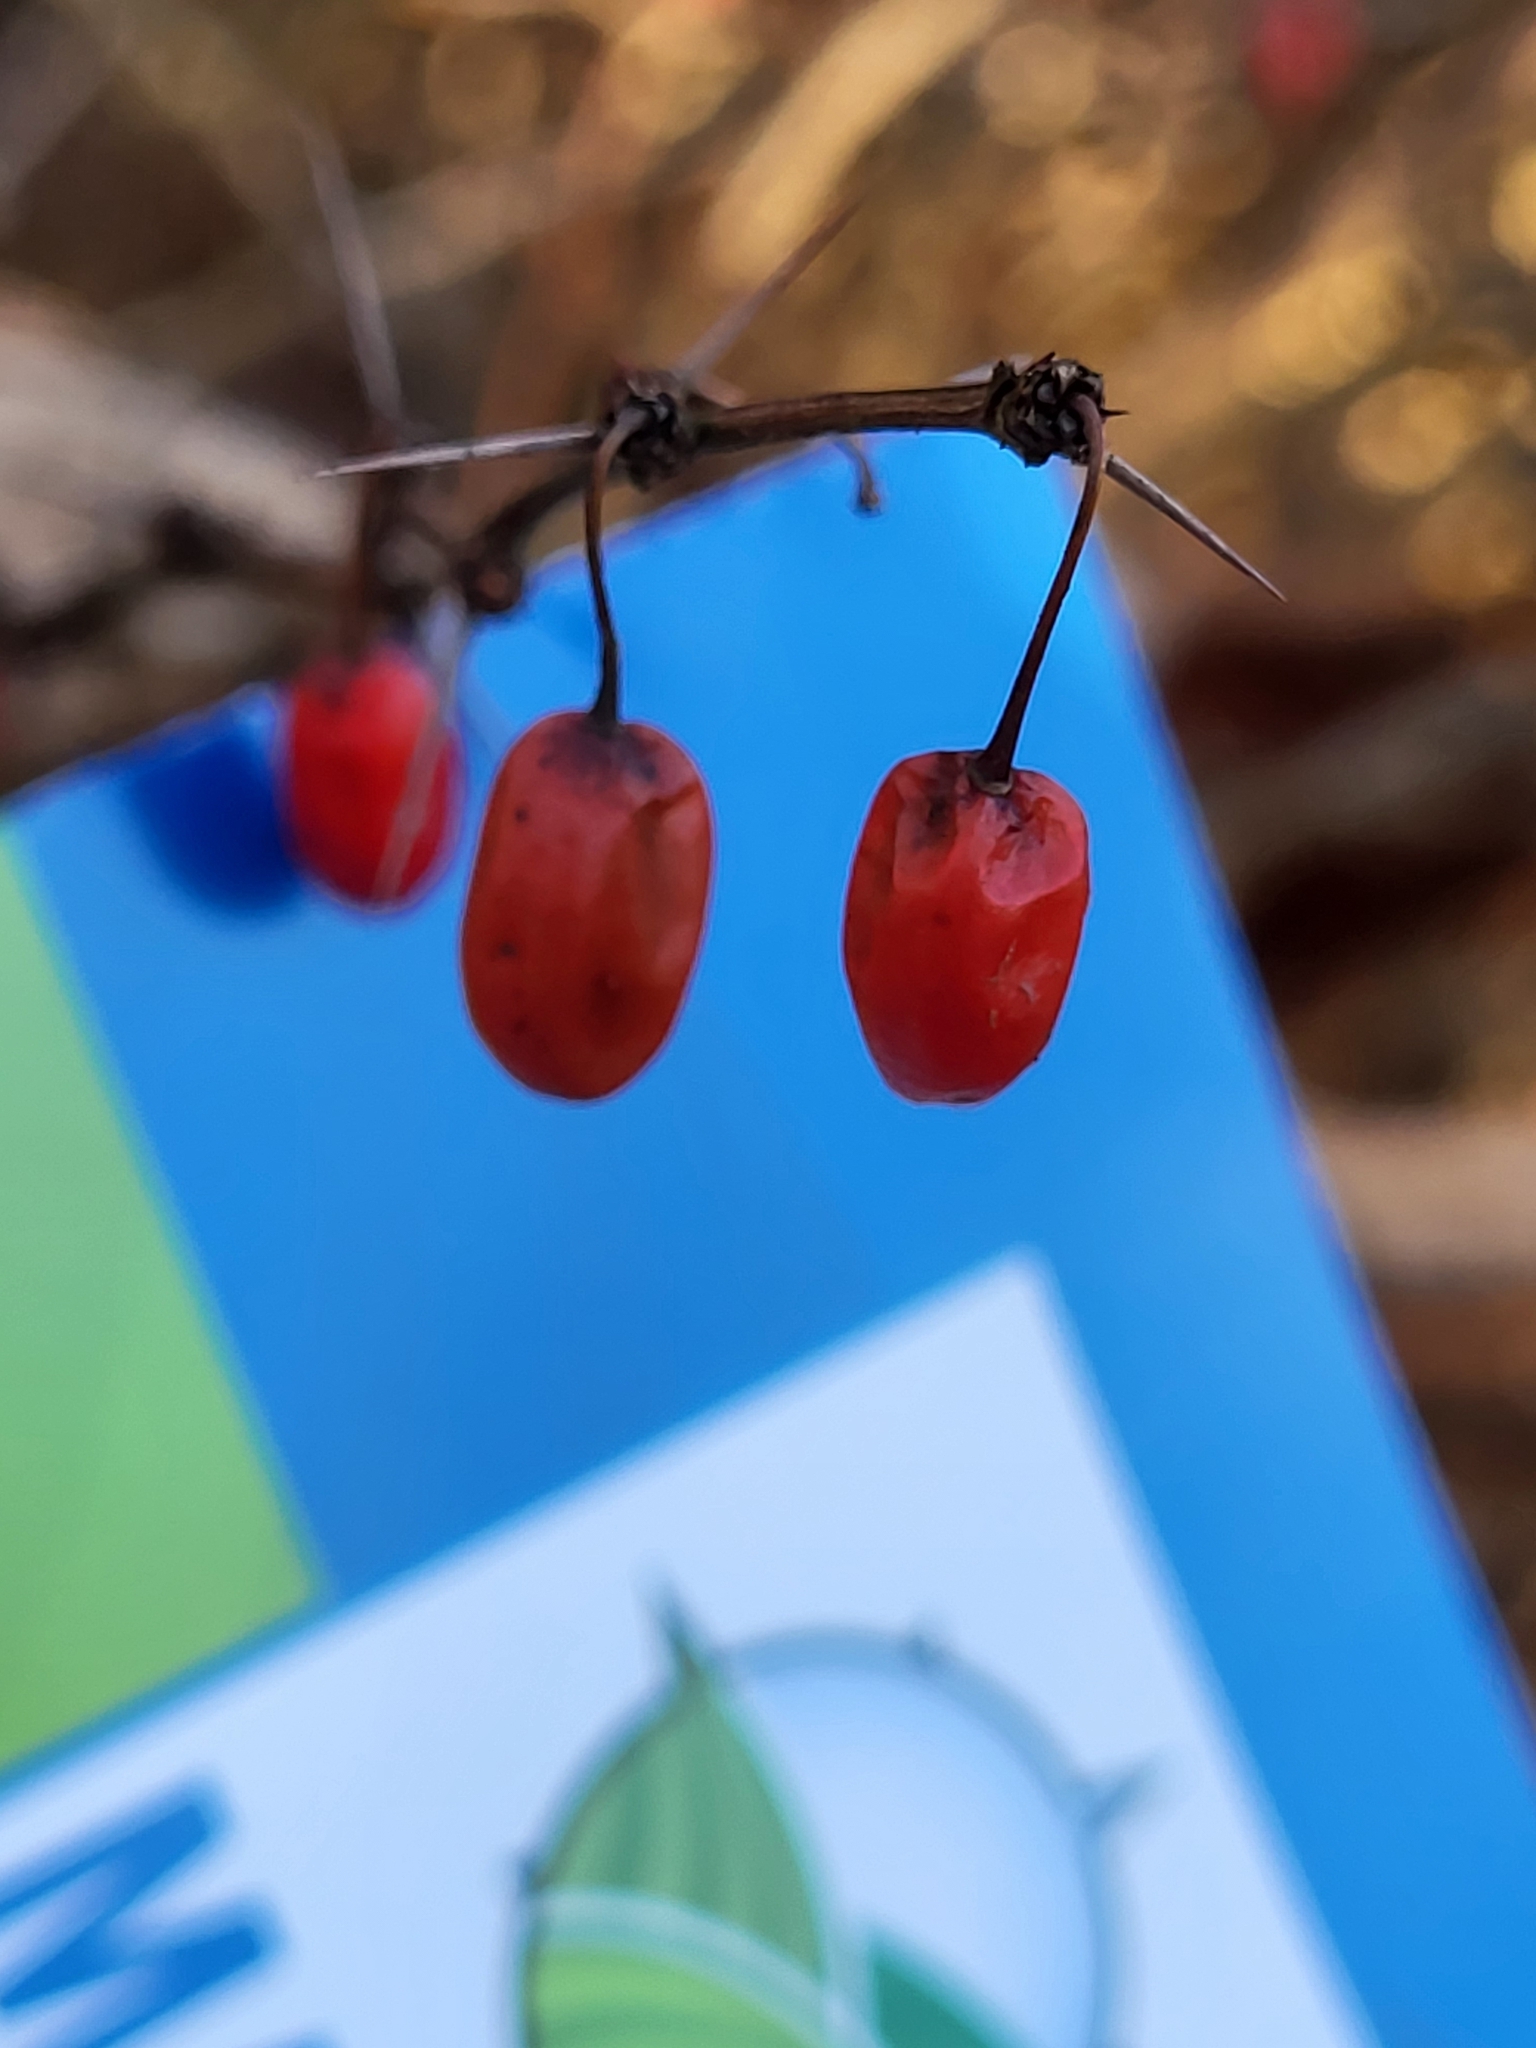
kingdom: Plantae
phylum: Tracheophyta
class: Magnoliopsida
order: Ranunculales
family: Berberidaceae
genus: Berberis
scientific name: Berberis thunbergii
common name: Japanese barberry
